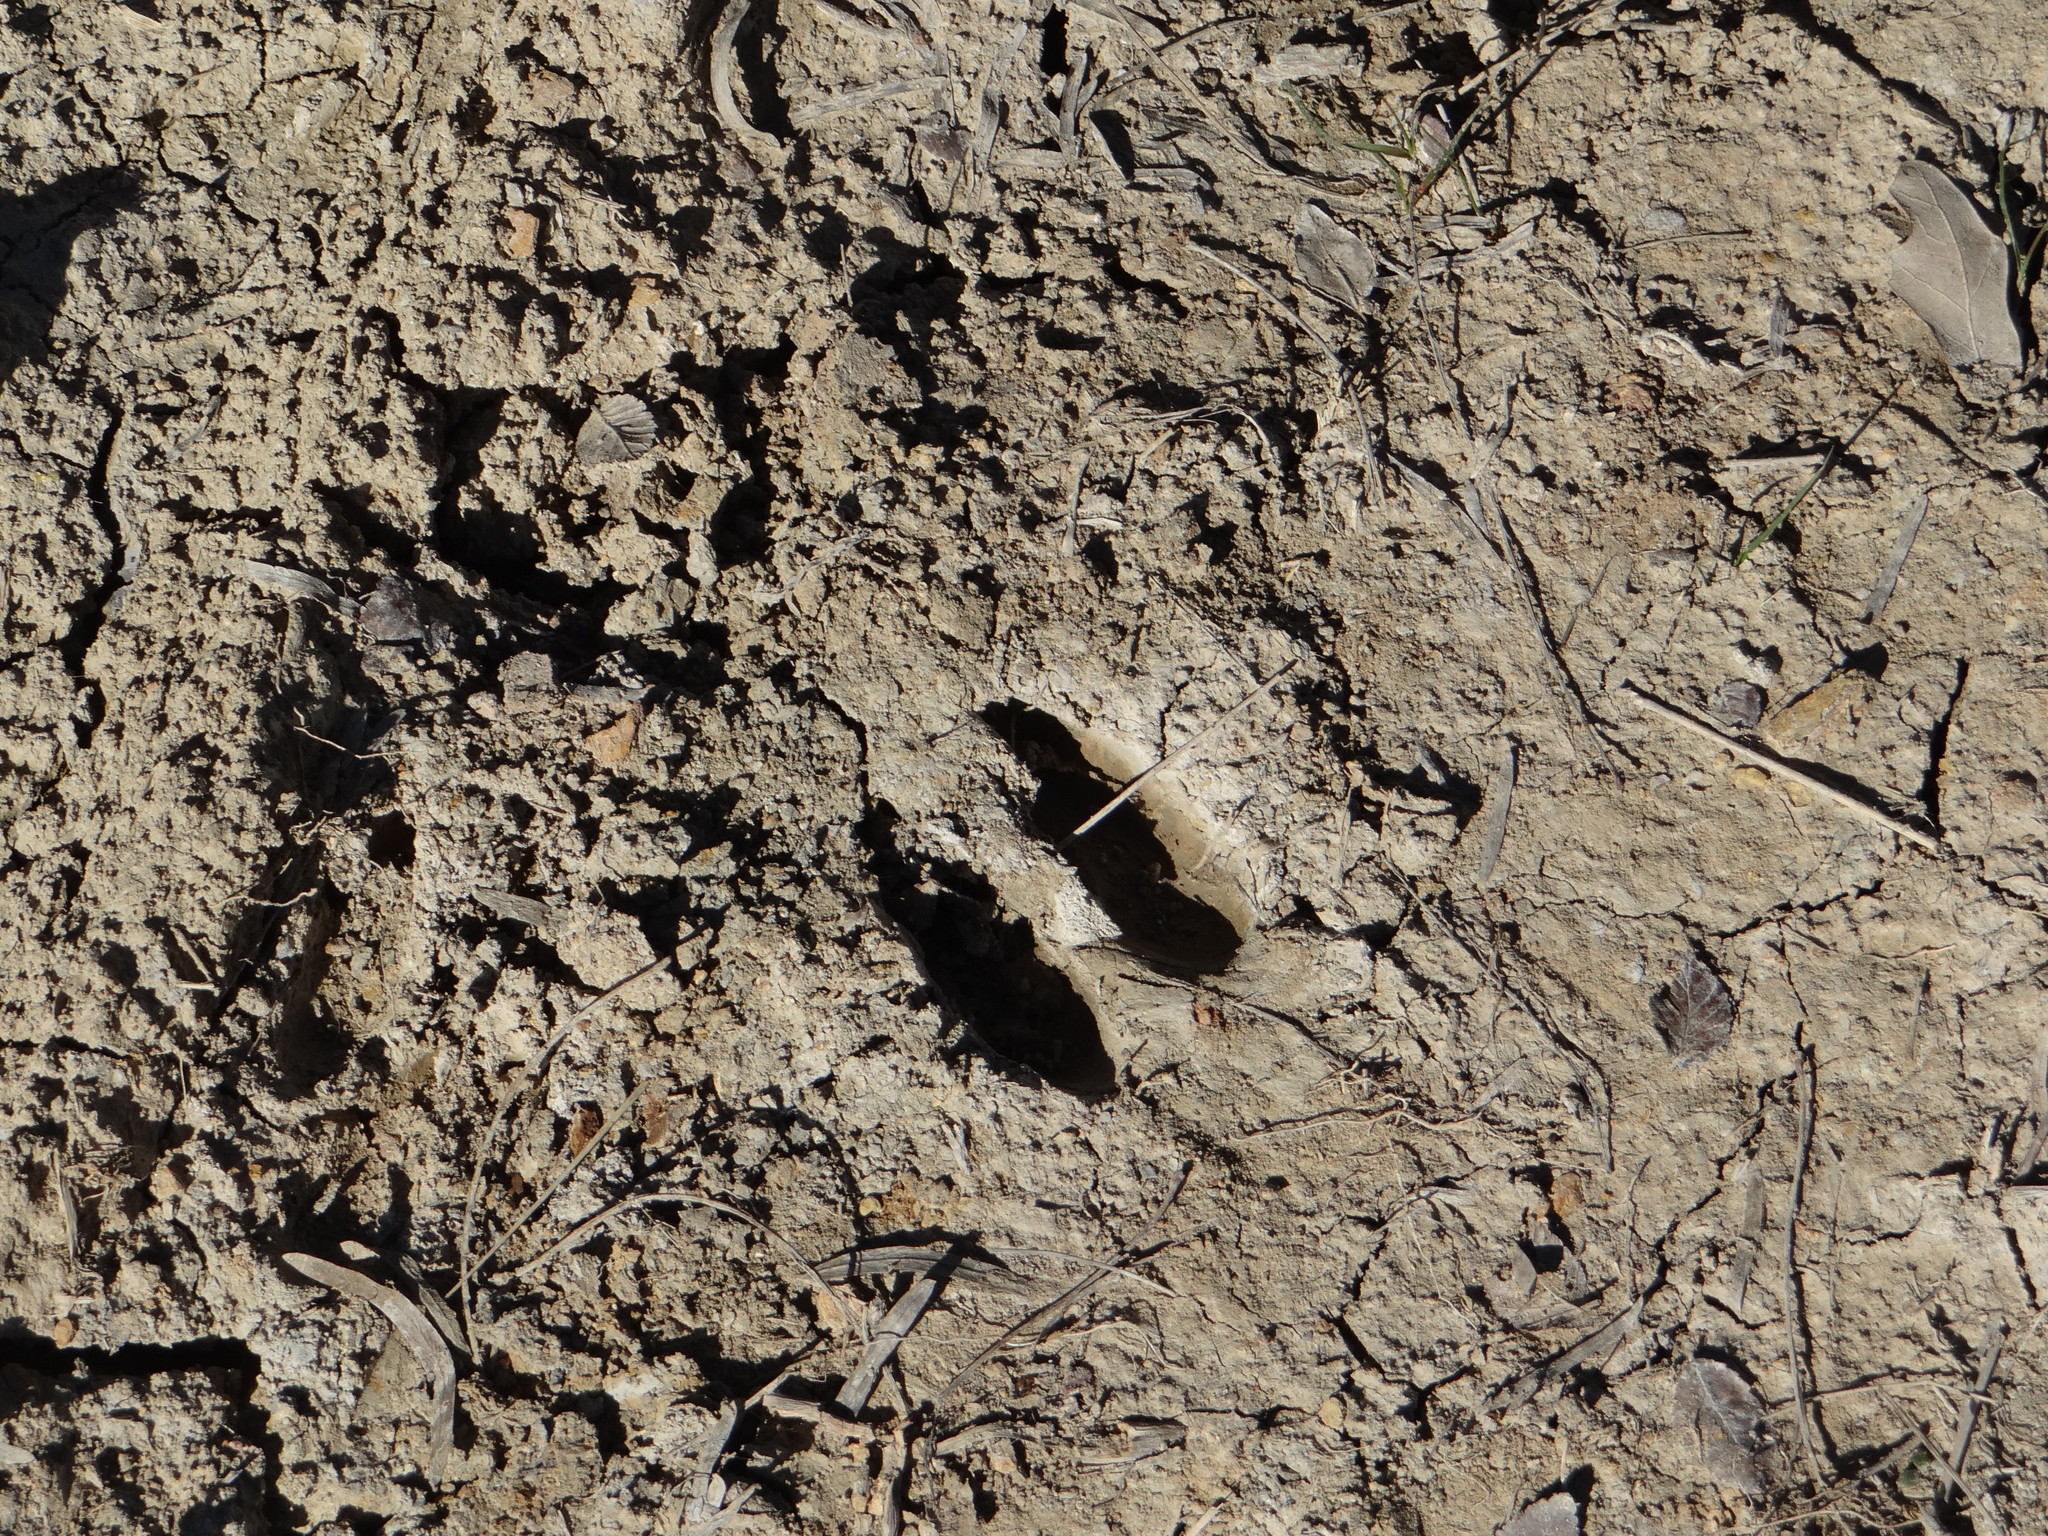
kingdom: Animalia
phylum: Chordata
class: Mammalia
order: Artiodactyla
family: Cervidae
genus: Odocoileus
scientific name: Odocoileus virginianus
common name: White-tailed deer
